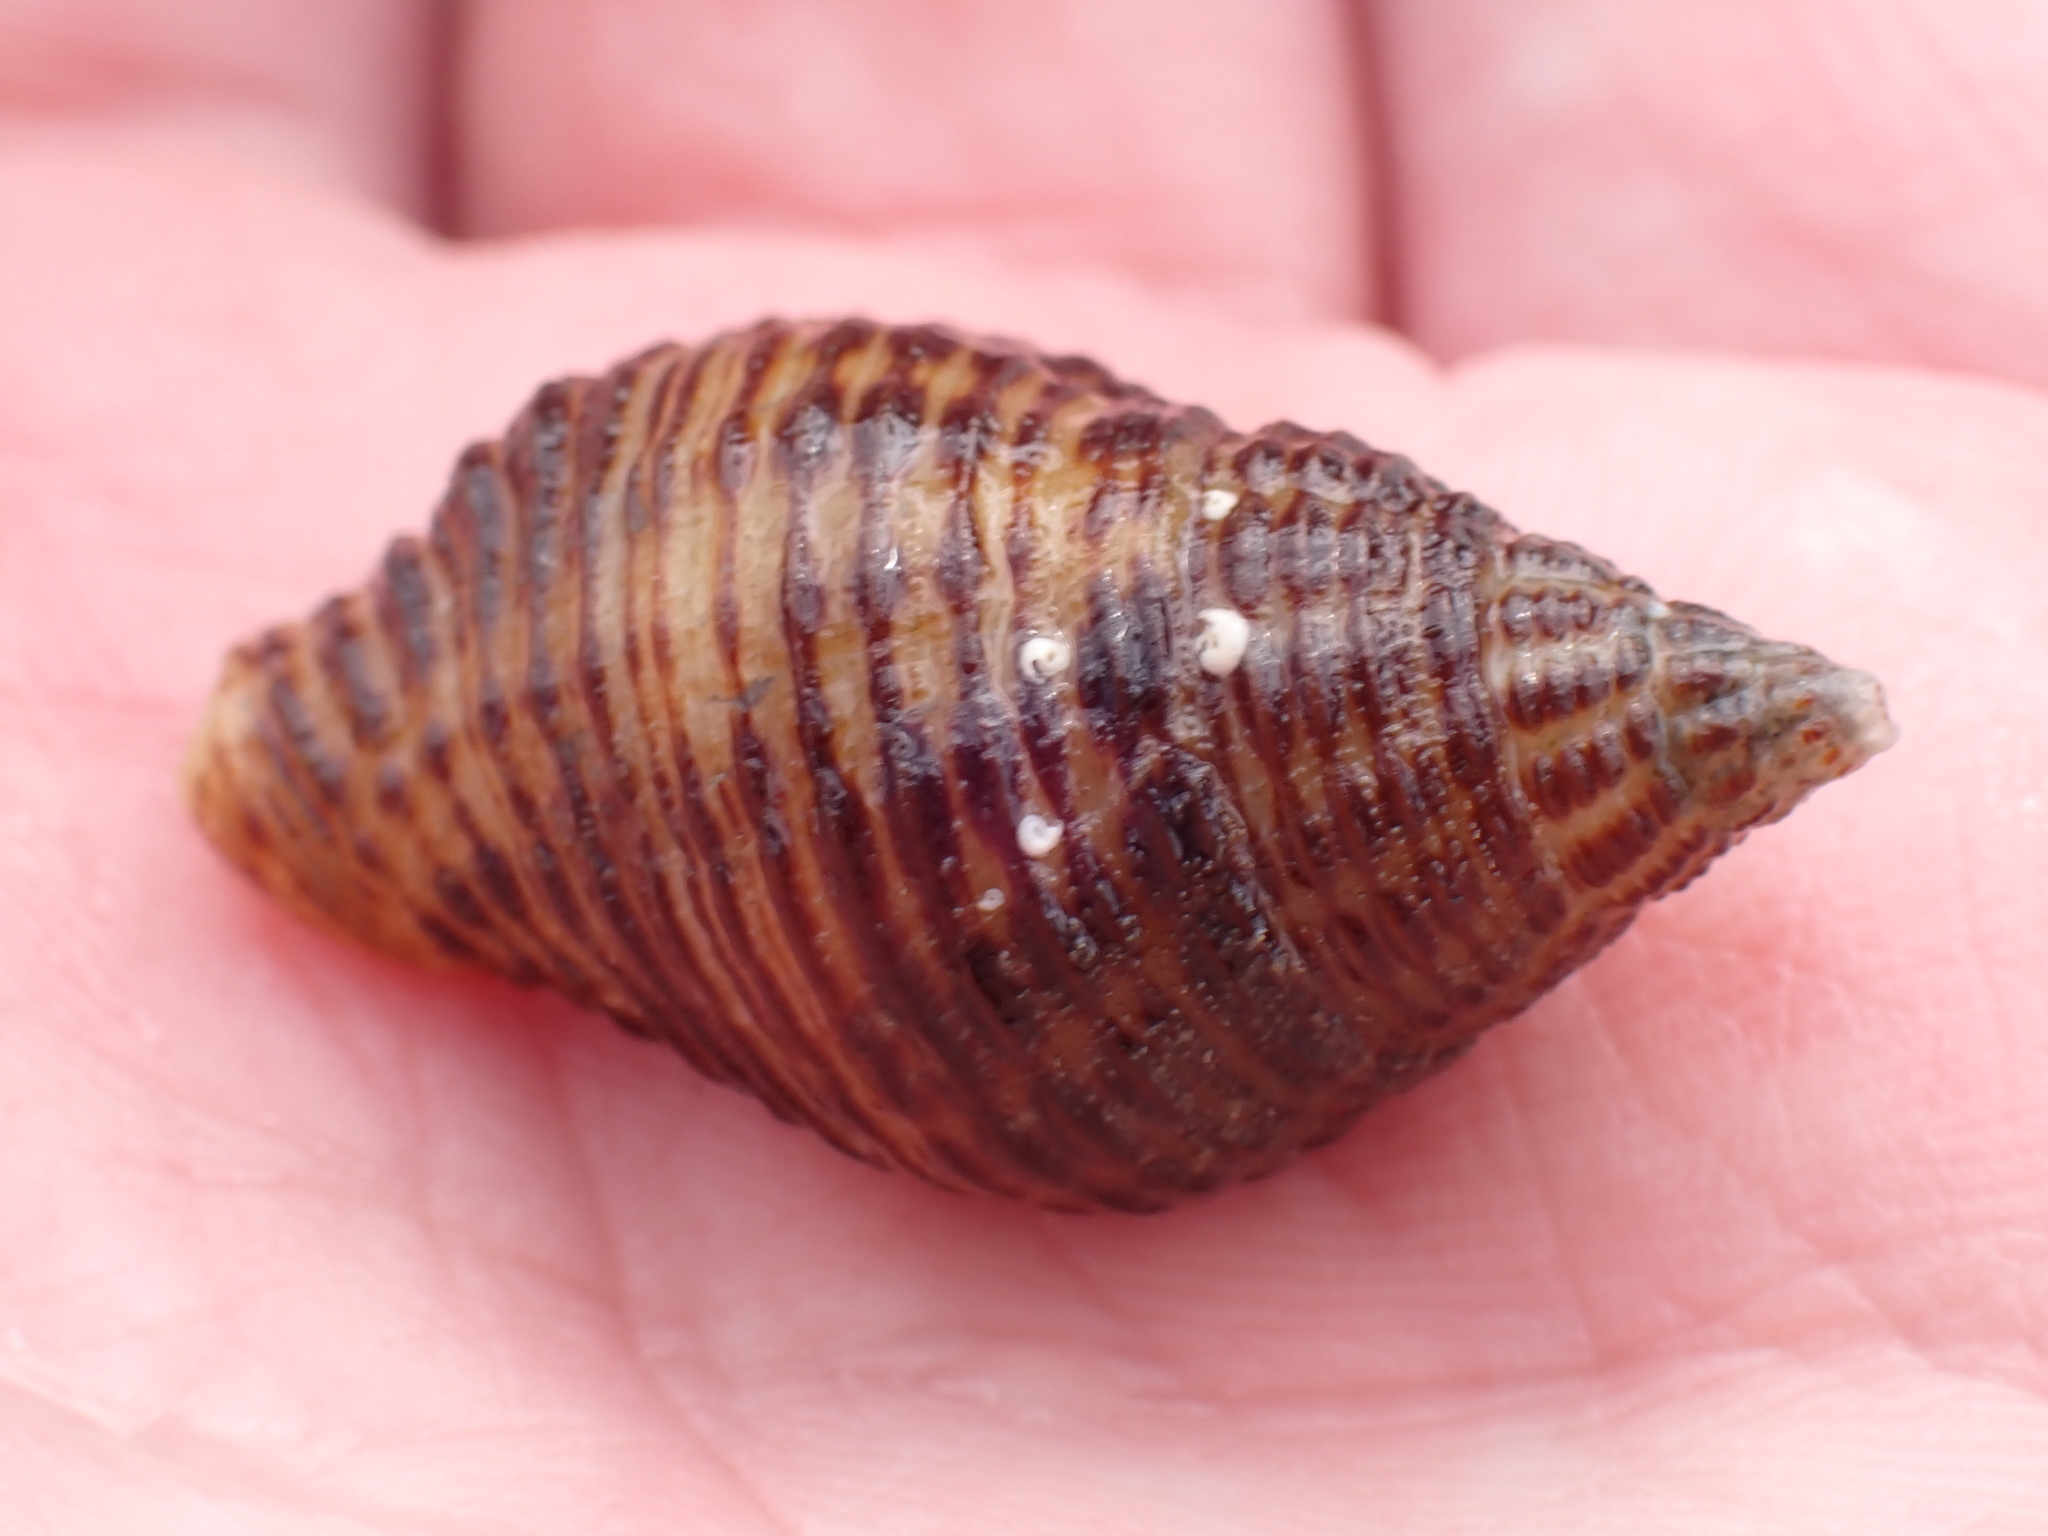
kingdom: Animalia
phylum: Mollusca
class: Gastropoda
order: Neogastropoda
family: Pisaniidae
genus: Pollia
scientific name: Pollia fumosa
